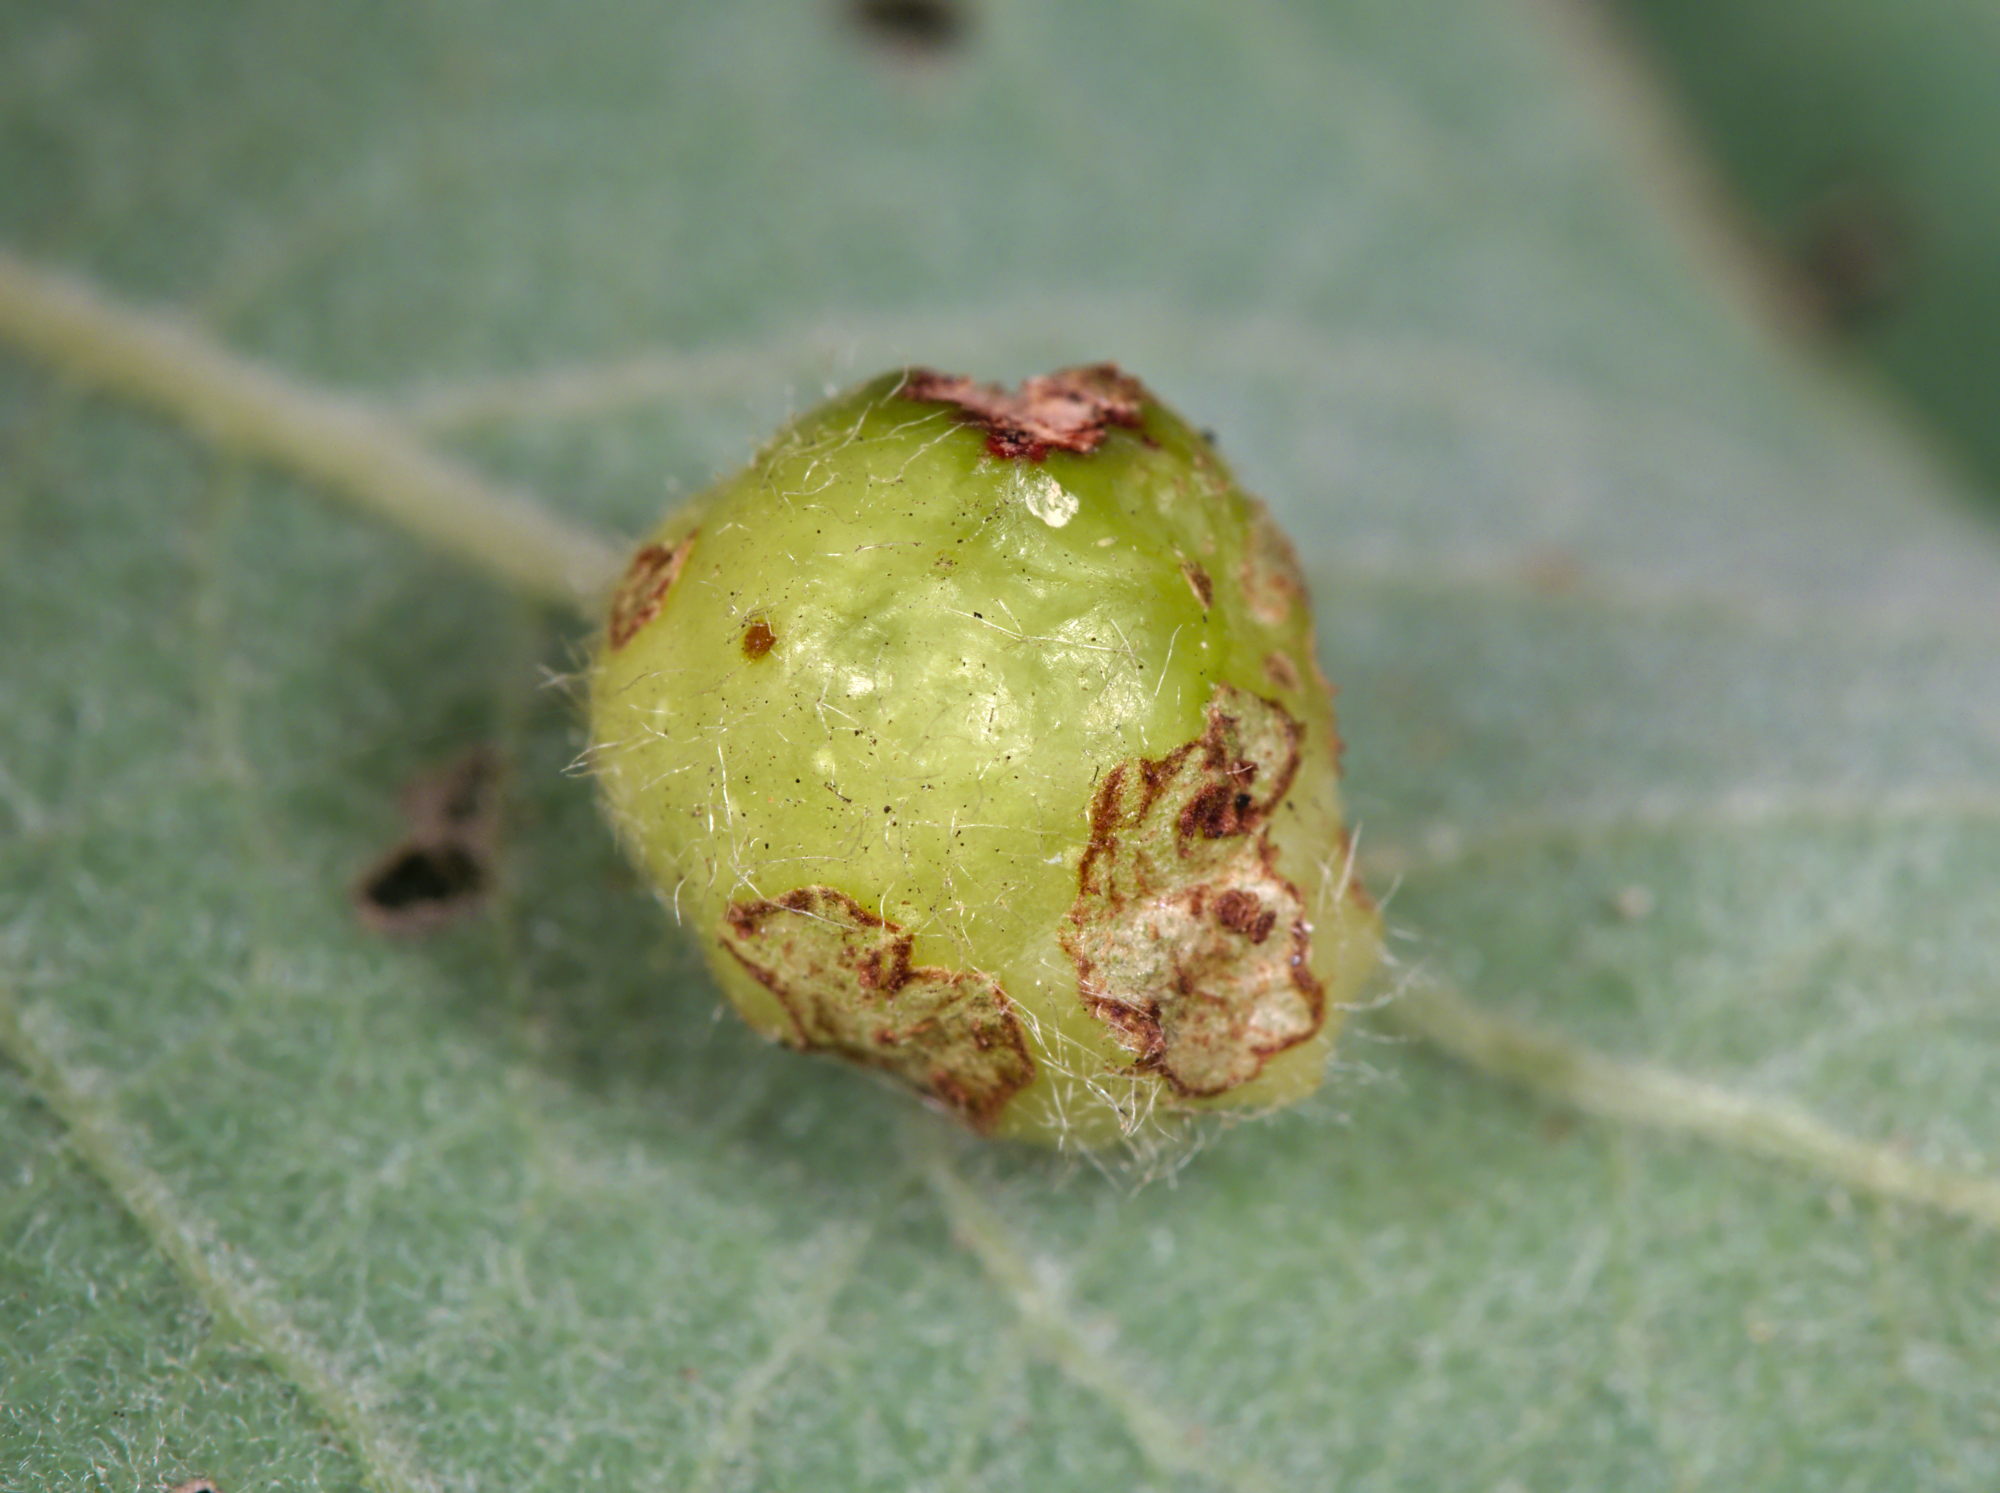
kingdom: Animalia
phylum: Arthropoda
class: Insecta
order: Hymenoptera
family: Tenthredinidae
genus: Pontania
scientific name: Pontania pedunculi
